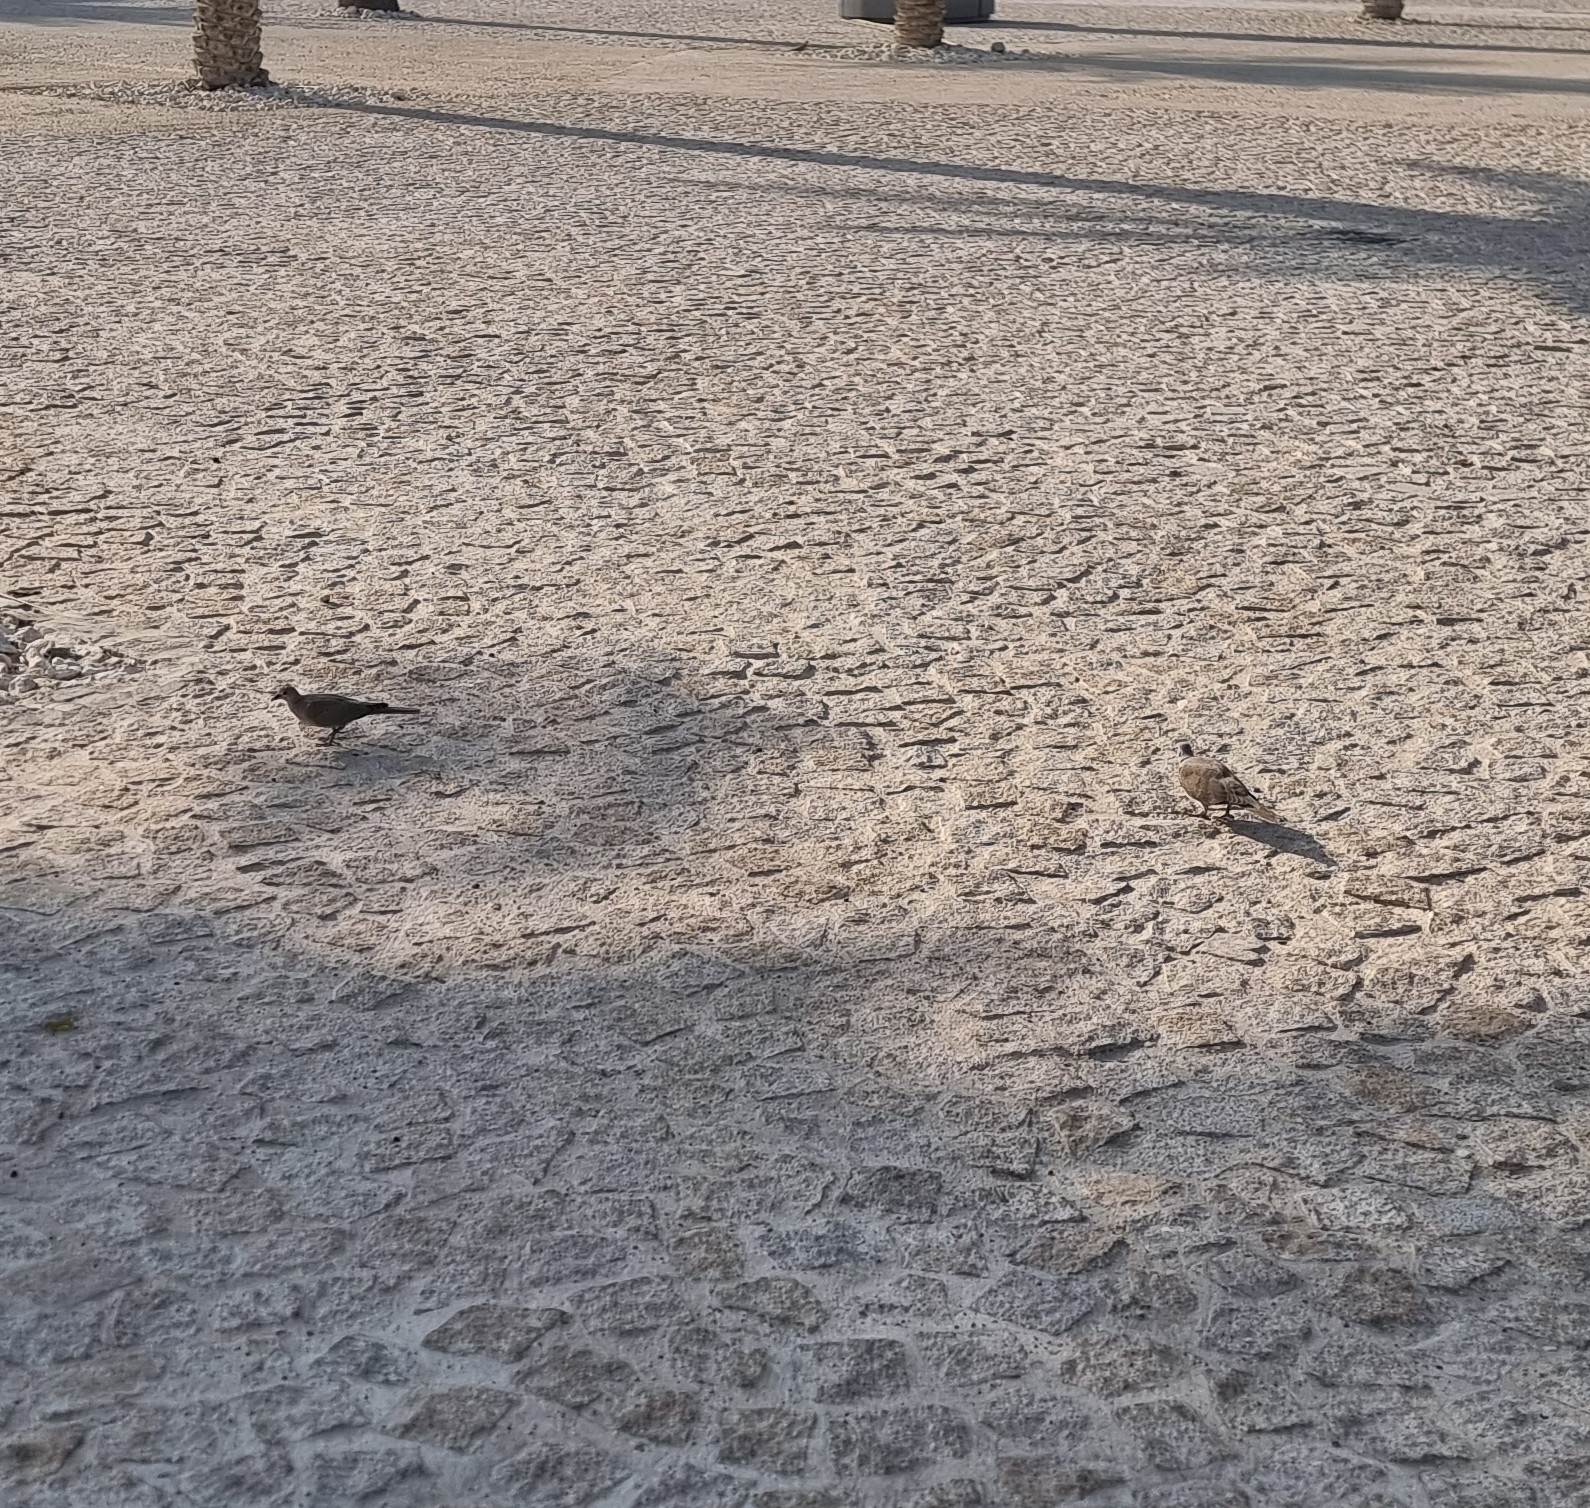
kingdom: Animalia
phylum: Chordata
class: Aves
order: Columbiformes
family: Columbidae
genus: Spilopelia
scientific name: Spilopelia senegalensis
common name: Laughing dove
